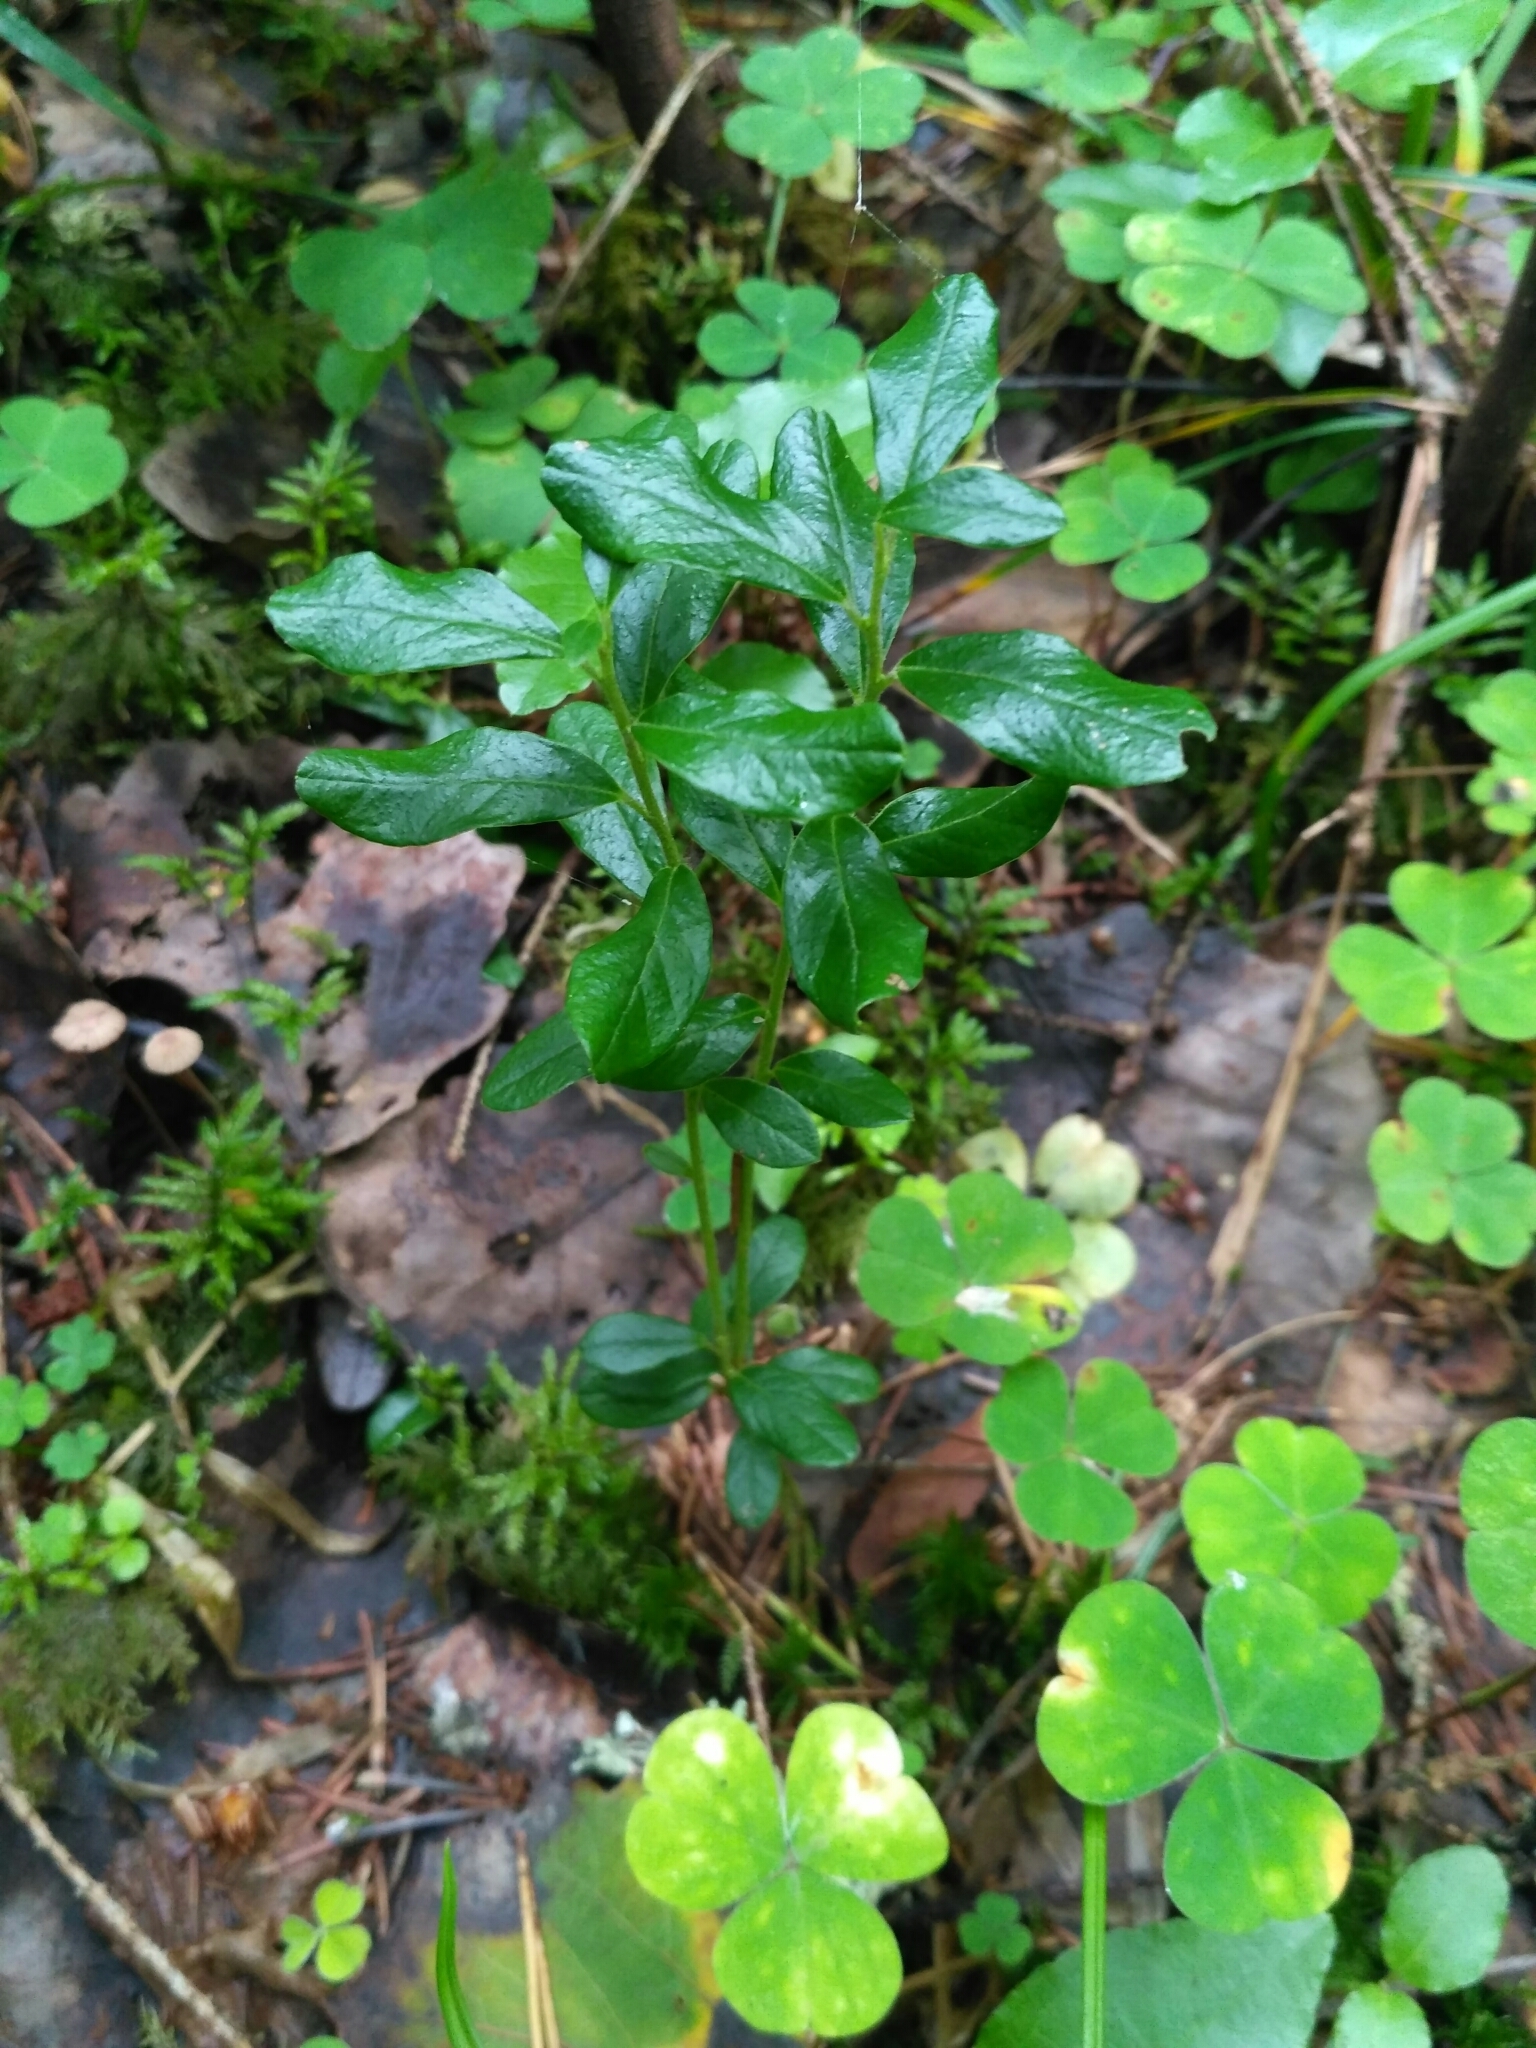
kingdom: Plantae
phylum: Tracheophyta
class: Magnoliopsida
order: Ericales
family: Ericaceae
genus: Vaccinium
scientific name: Vaccinium vitis-idaea
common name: Cowberry
